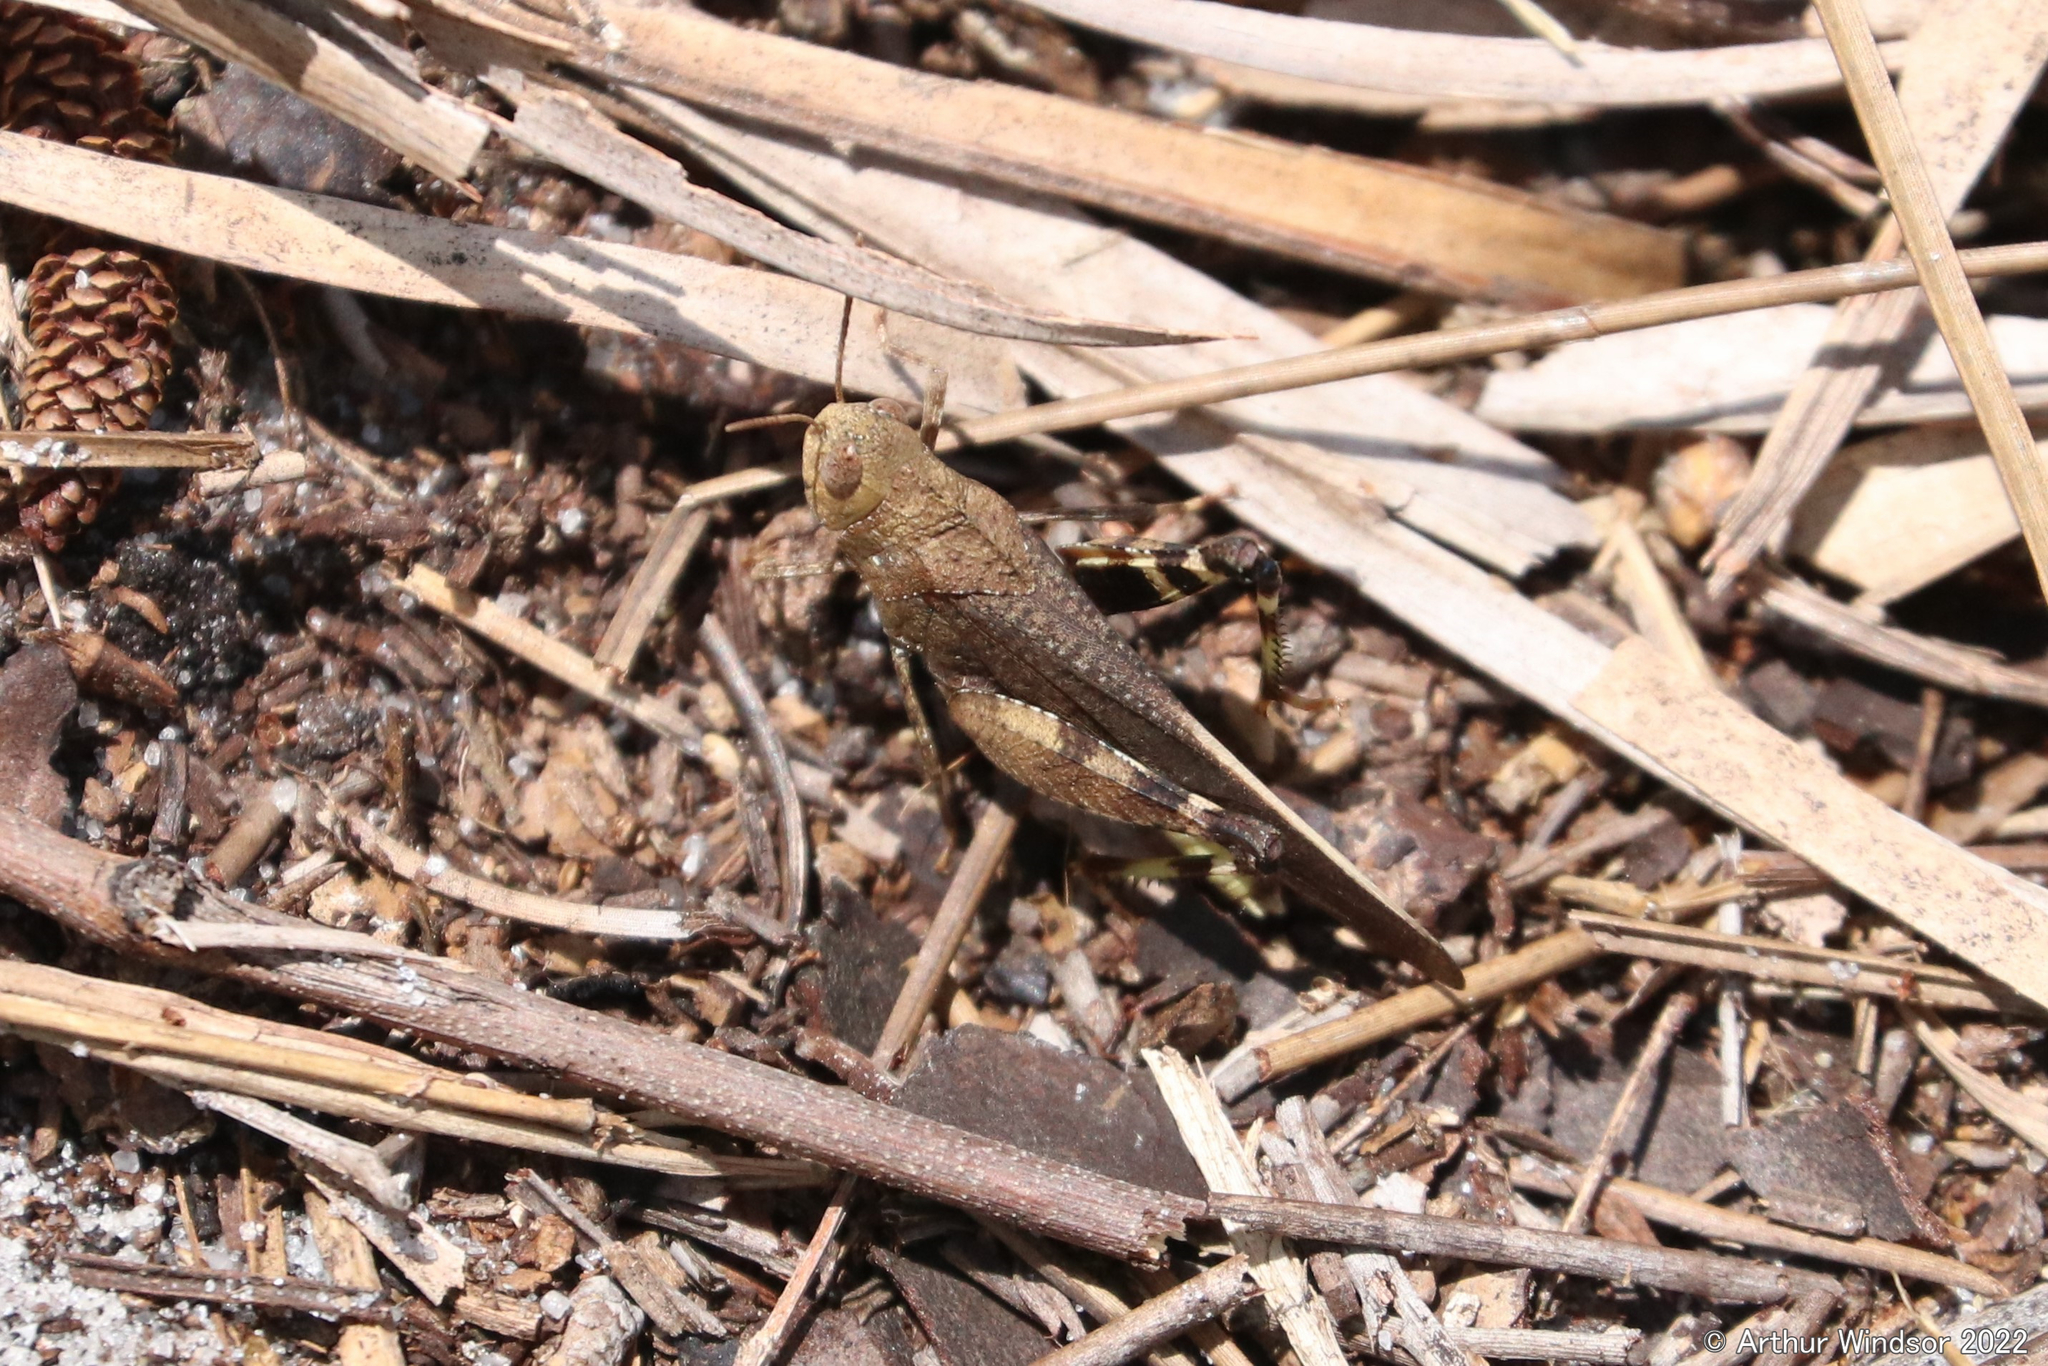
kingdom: Animalia
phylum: Arthropoda
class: Insecta
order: Orthoptera
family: Acrididae
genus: Arphia
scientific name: Arphia granulata
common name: Southern yellow-winged grasshopper
